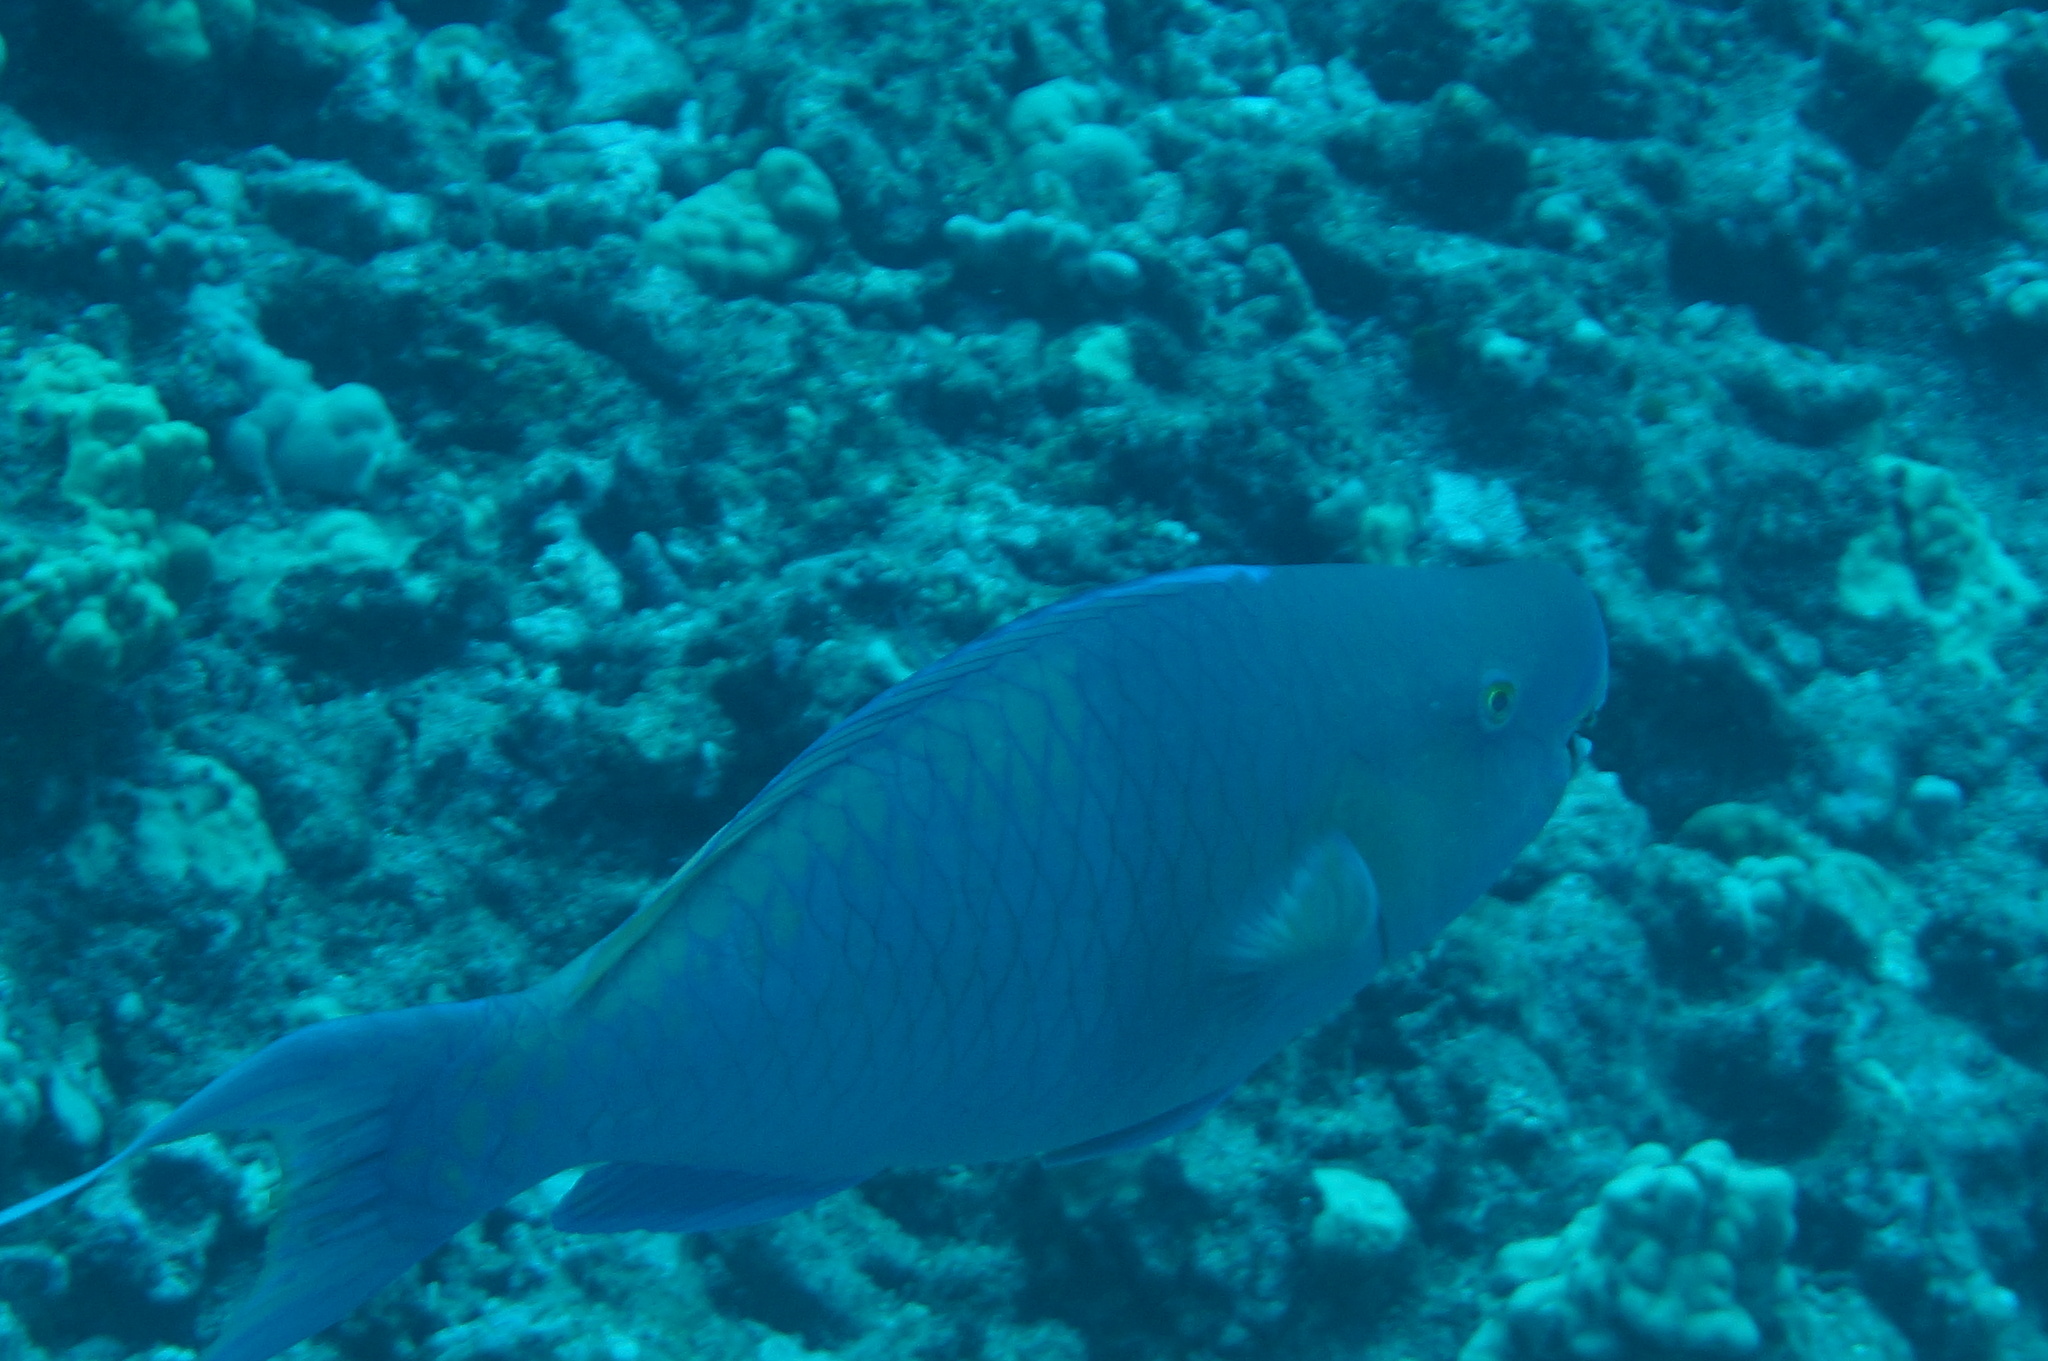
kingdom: Animalia
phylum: Chordata
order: Perciformes
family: Scaridae
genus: Scarus
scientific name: Scarus rubroviolaceus
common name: Ember parrotfish
